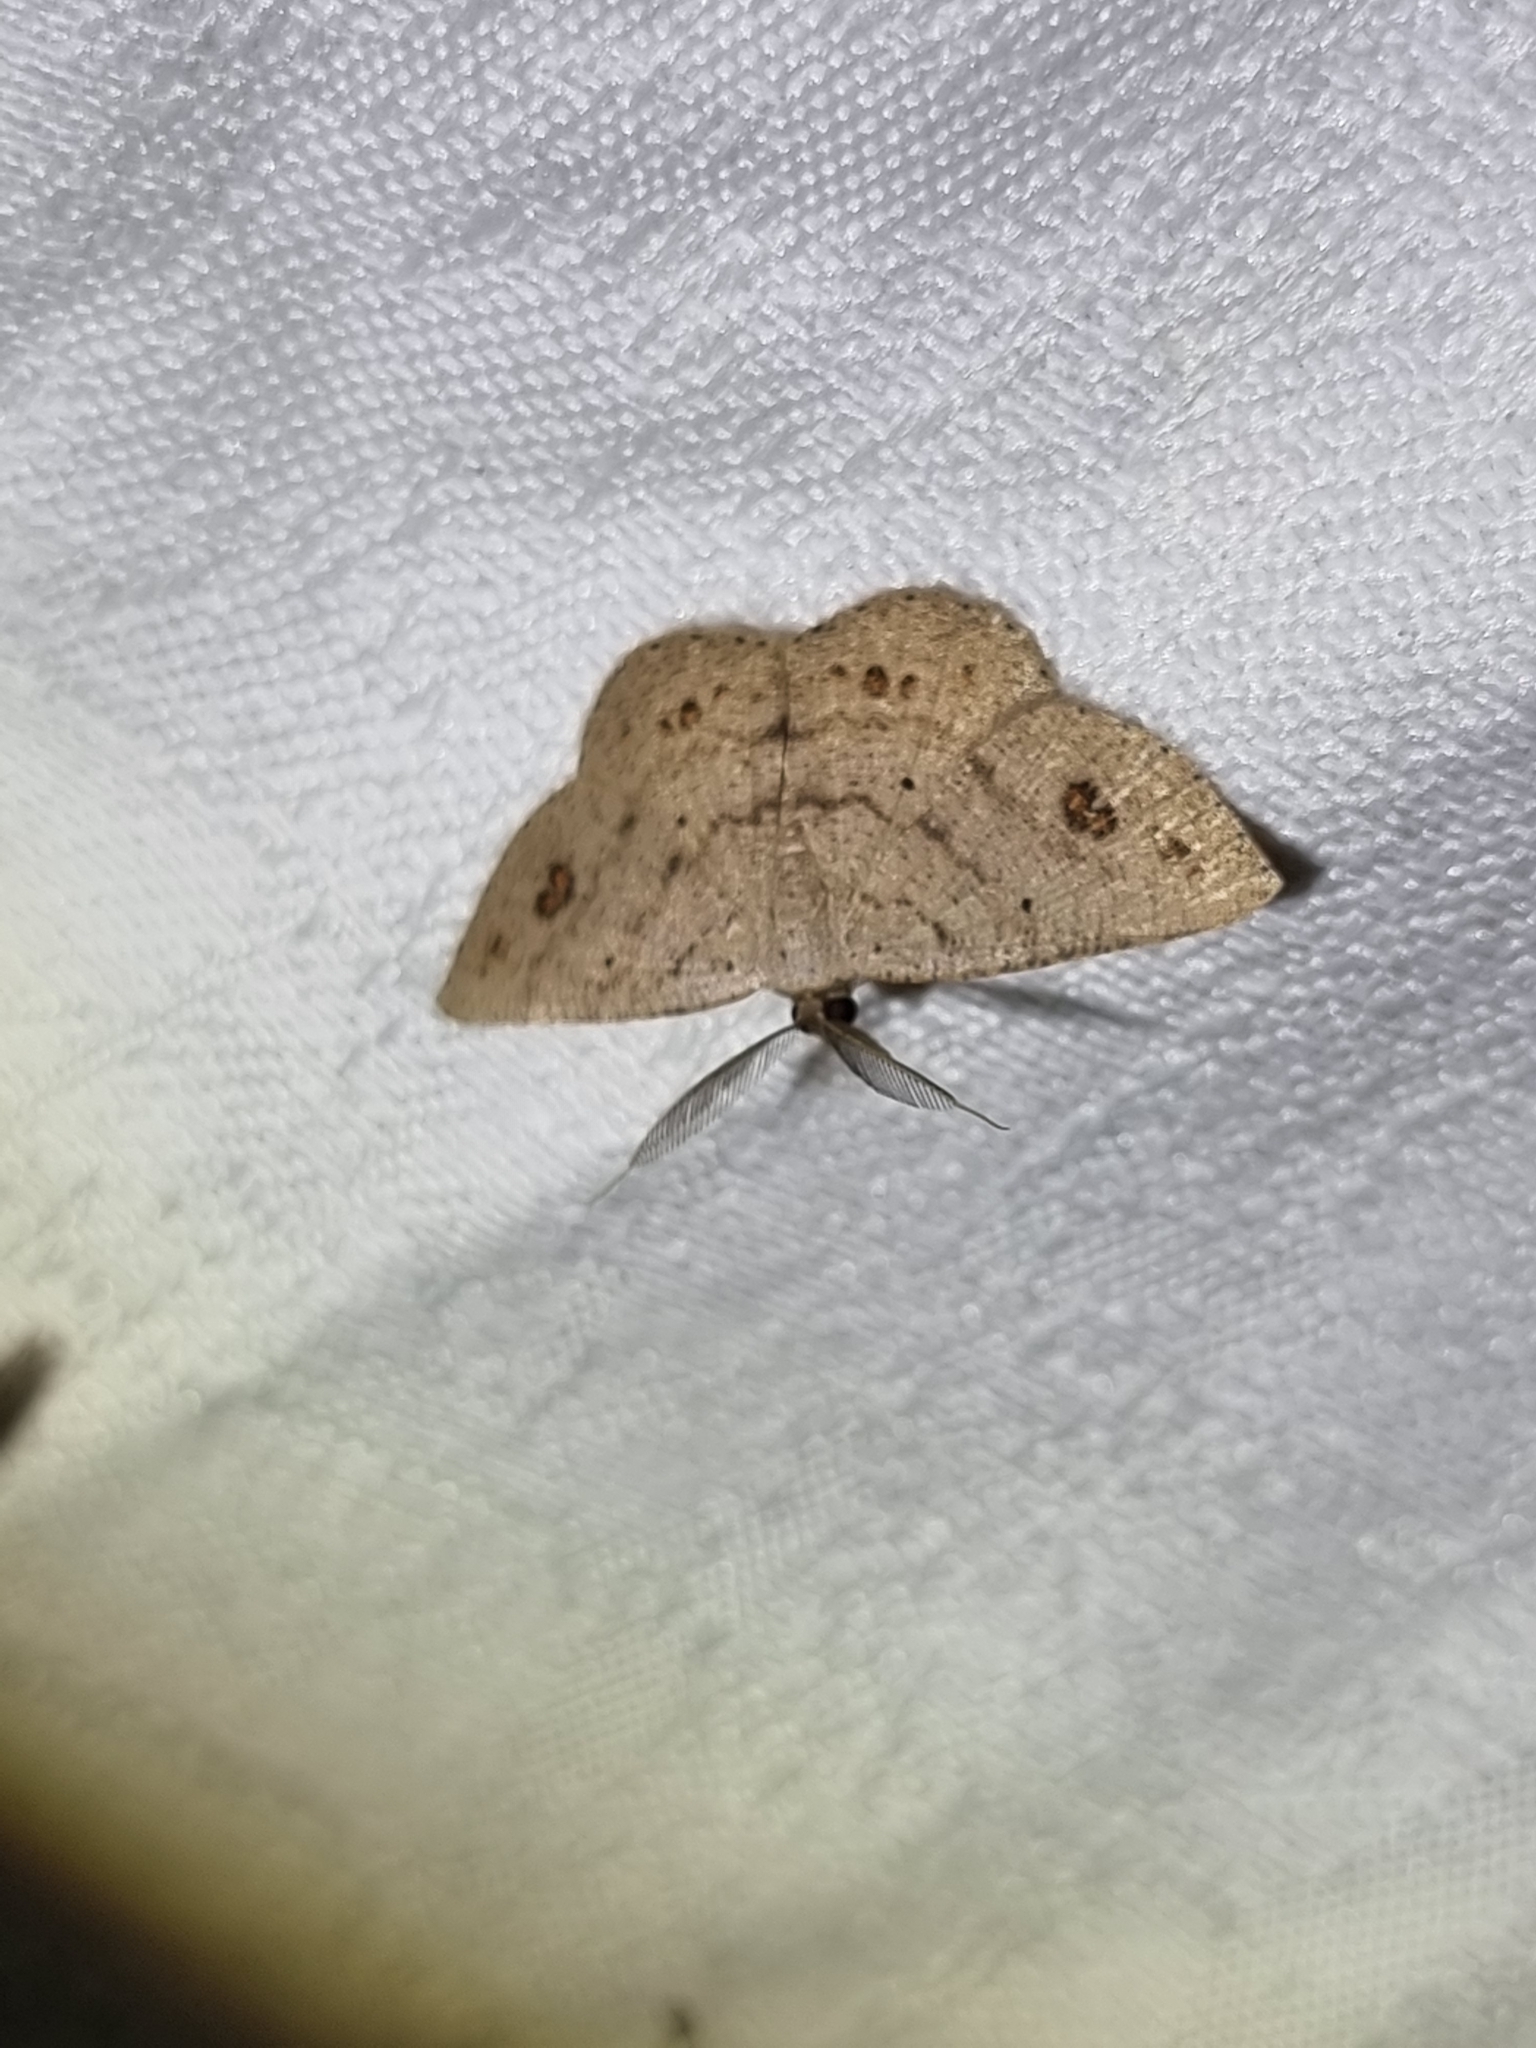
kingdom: Animalia
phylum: Arthropoda
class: Insecta
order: Lepidoptera
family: Geometridae
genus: Casbia
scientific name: Casbia rectaria
